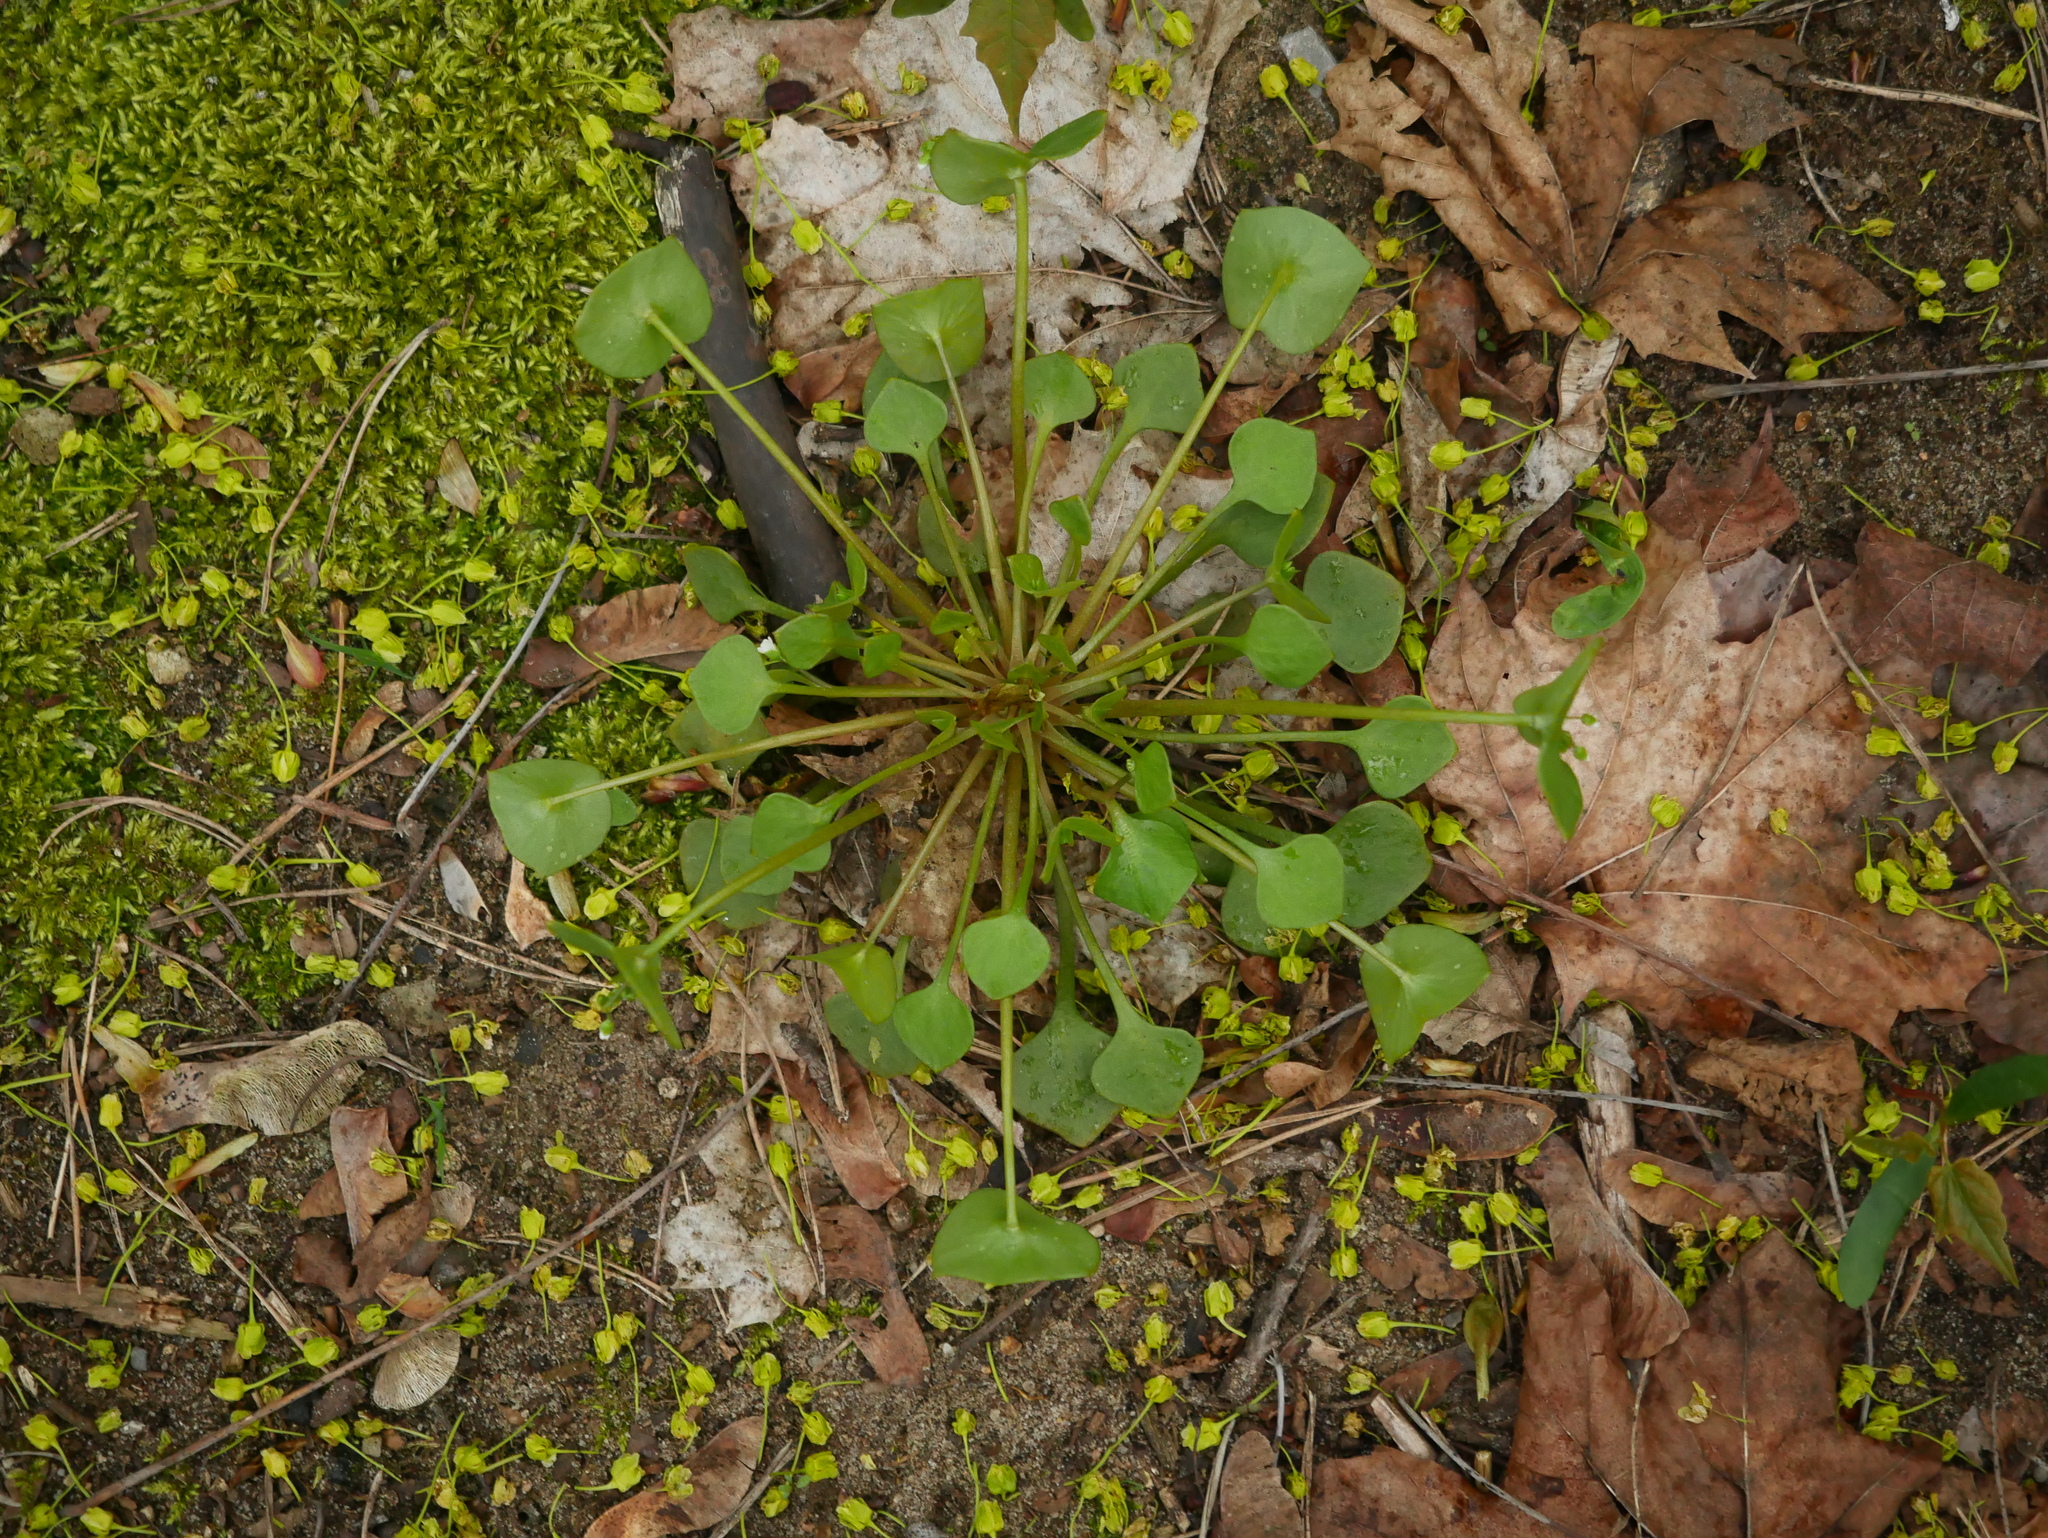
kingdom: Plantae
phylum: Tracheophyta
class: Magnoliopsida
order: Caryophyllales
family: Montiaceae
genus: Claytonia
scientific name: Claytonia perfoliata
